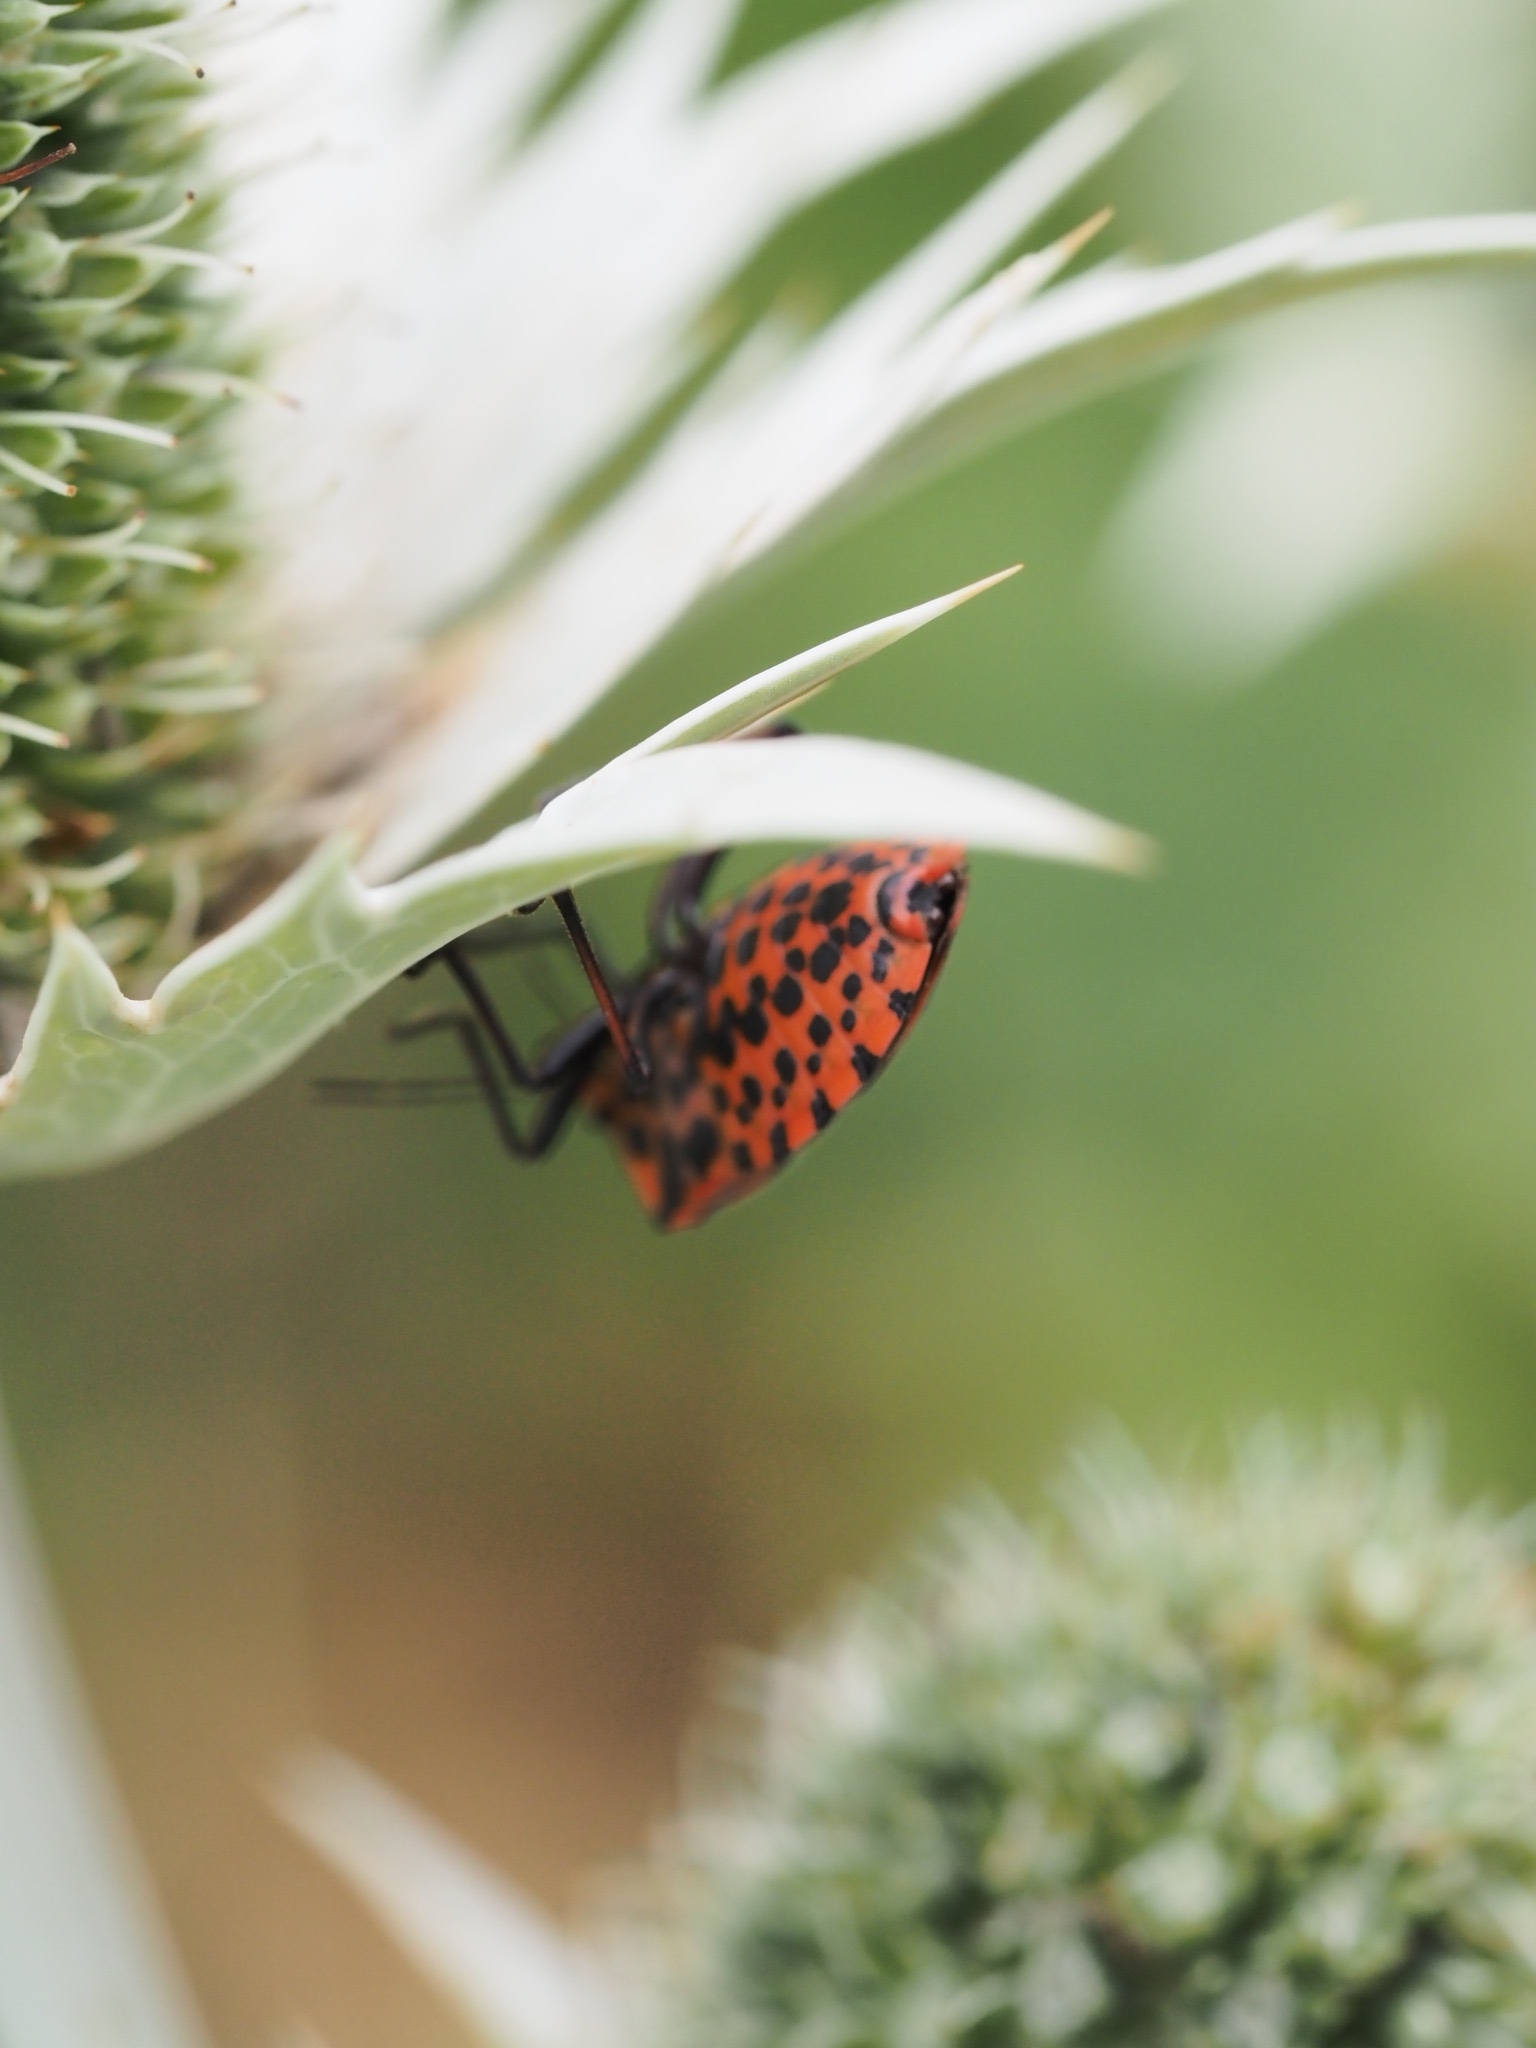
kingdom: Animalia
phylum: Arthropoda
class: Insecta
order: Hemiptera
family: Pentatomidae
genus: Graphosoma
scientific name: Graphosoma italicum
